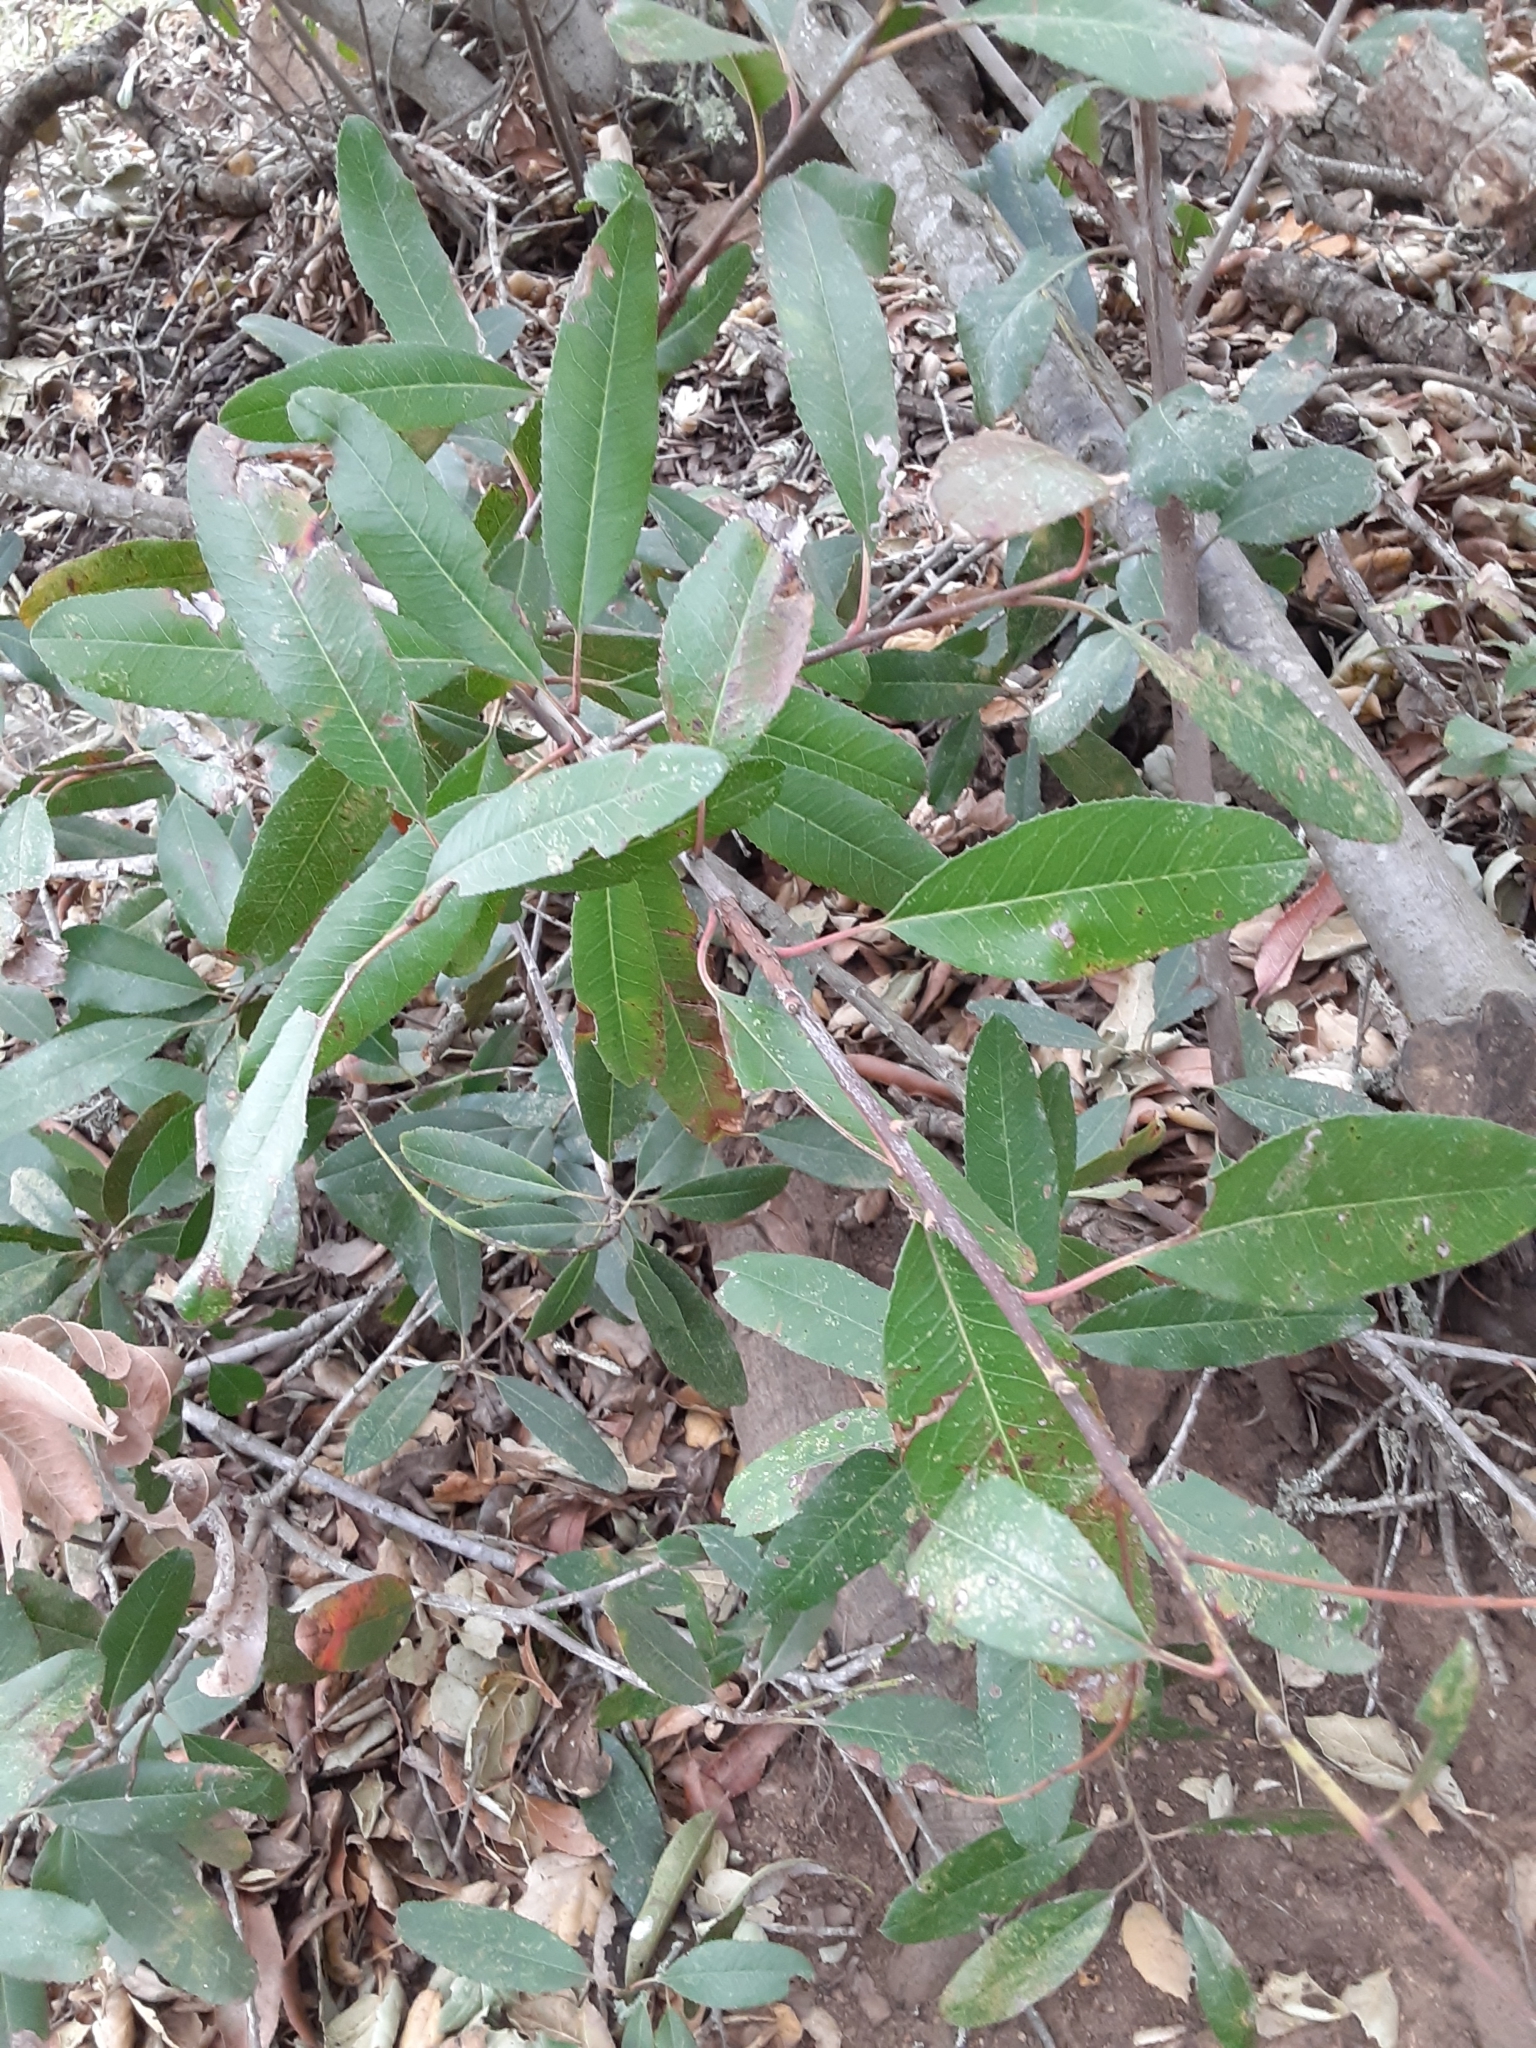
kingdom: Plantae
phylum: Tracheophyta
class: Magnoliopsida
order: Rosales
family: Rosaceae
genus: Heteromeles
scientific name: Heteromeles arbutifolia
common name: California-holly
